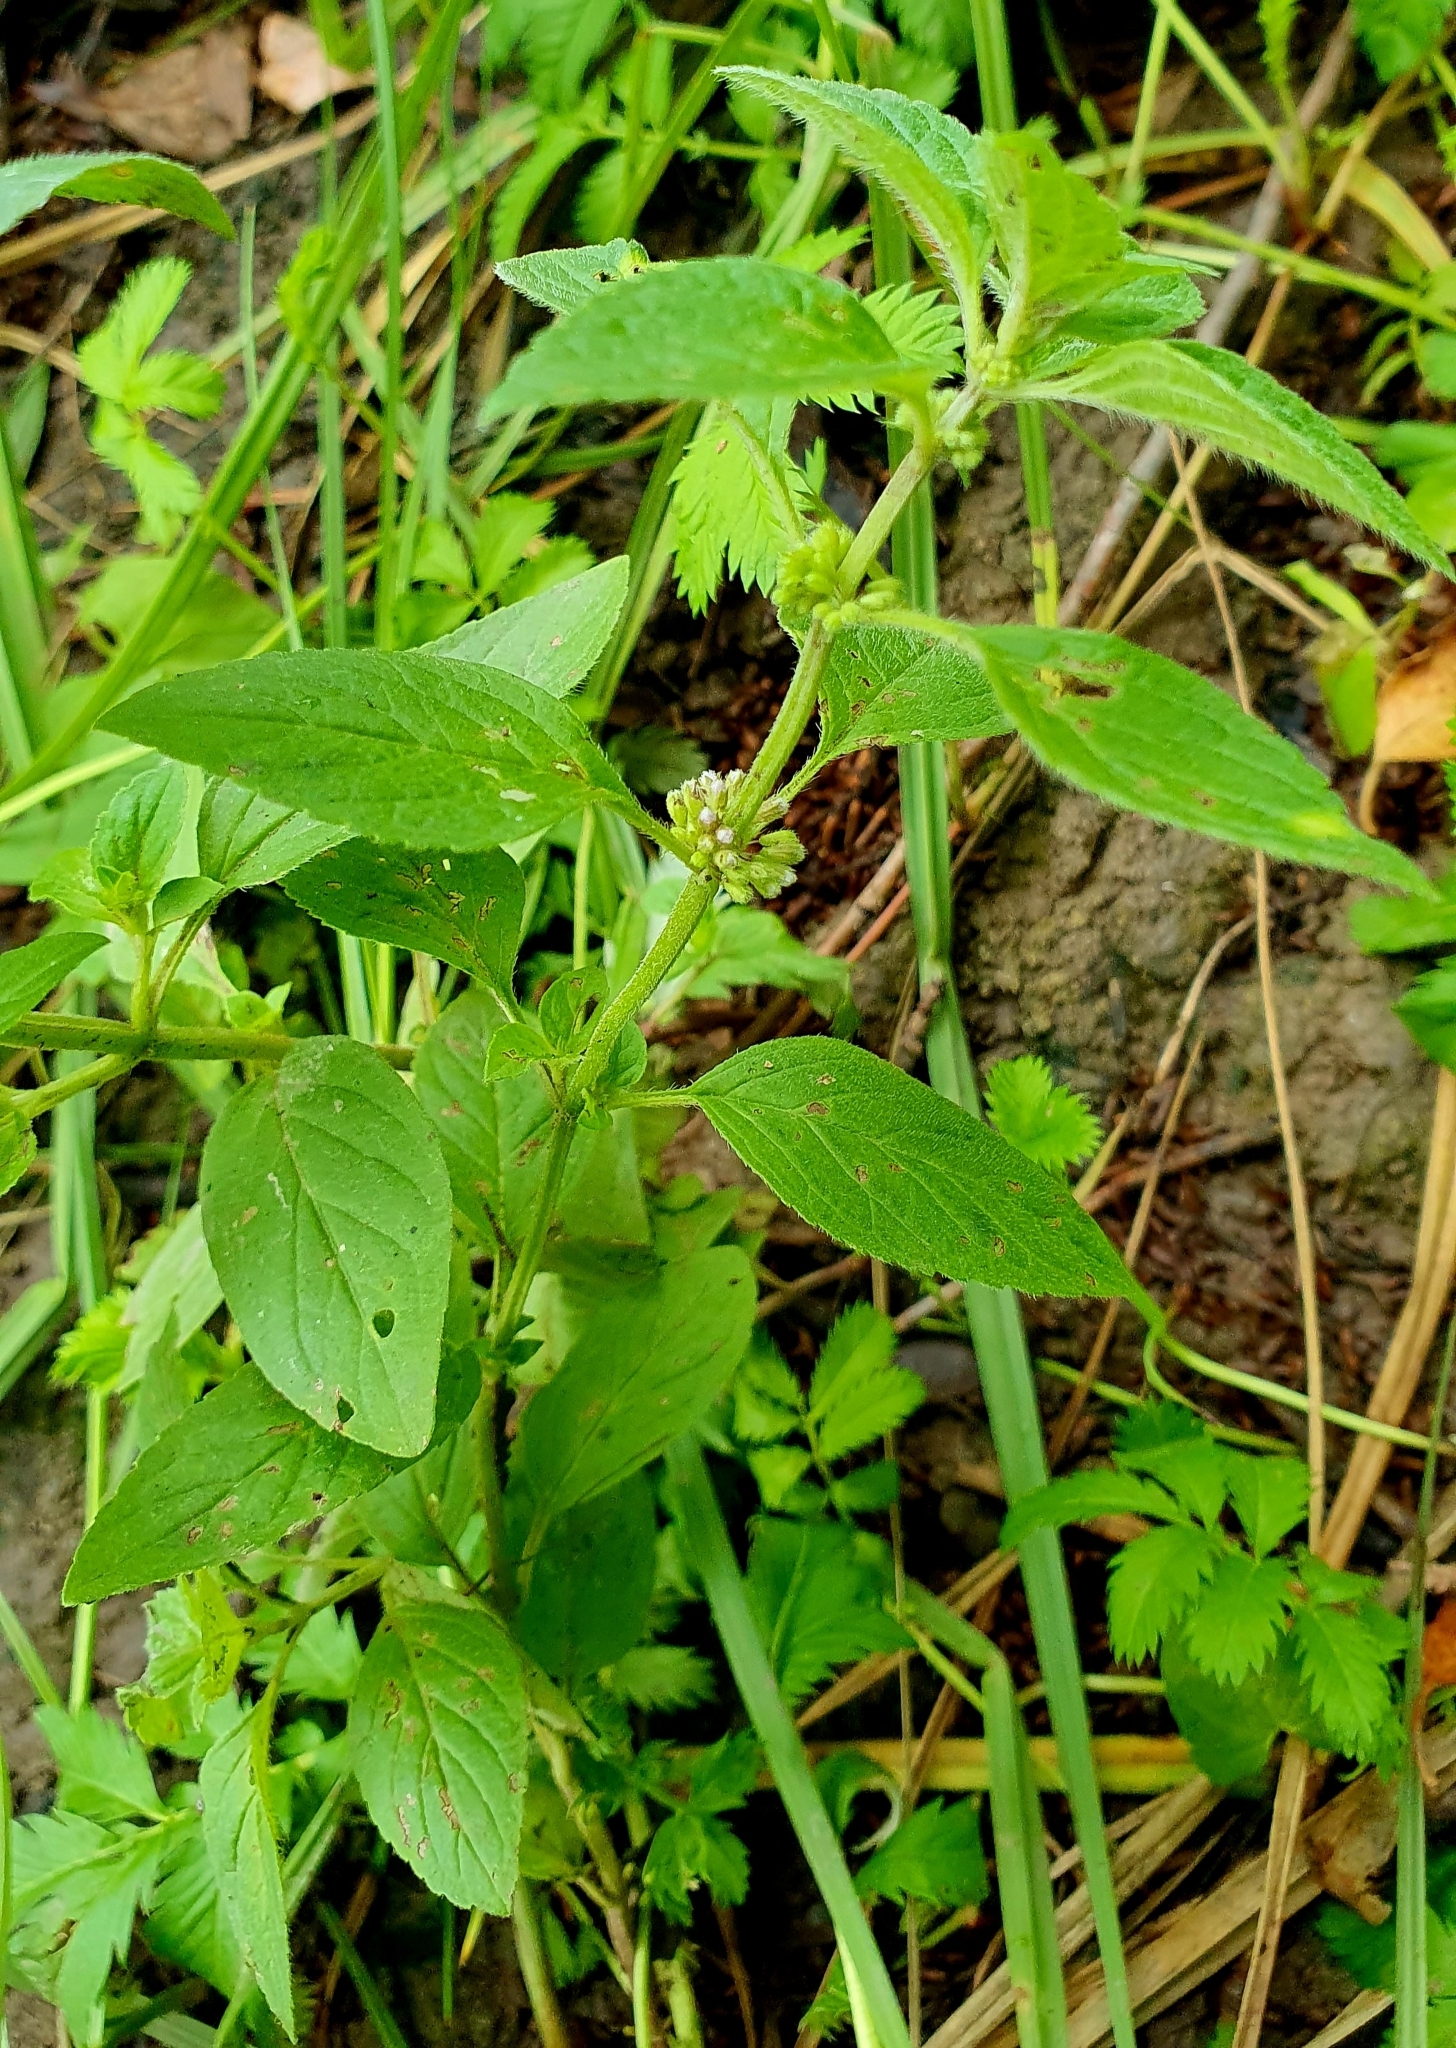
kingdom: Plantae
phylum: Tracheophyta
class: Magnoliopsida
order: Lamiales
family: Lamiaceae
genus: Mentha
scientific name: Mentha arvensis
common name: Corn mint
